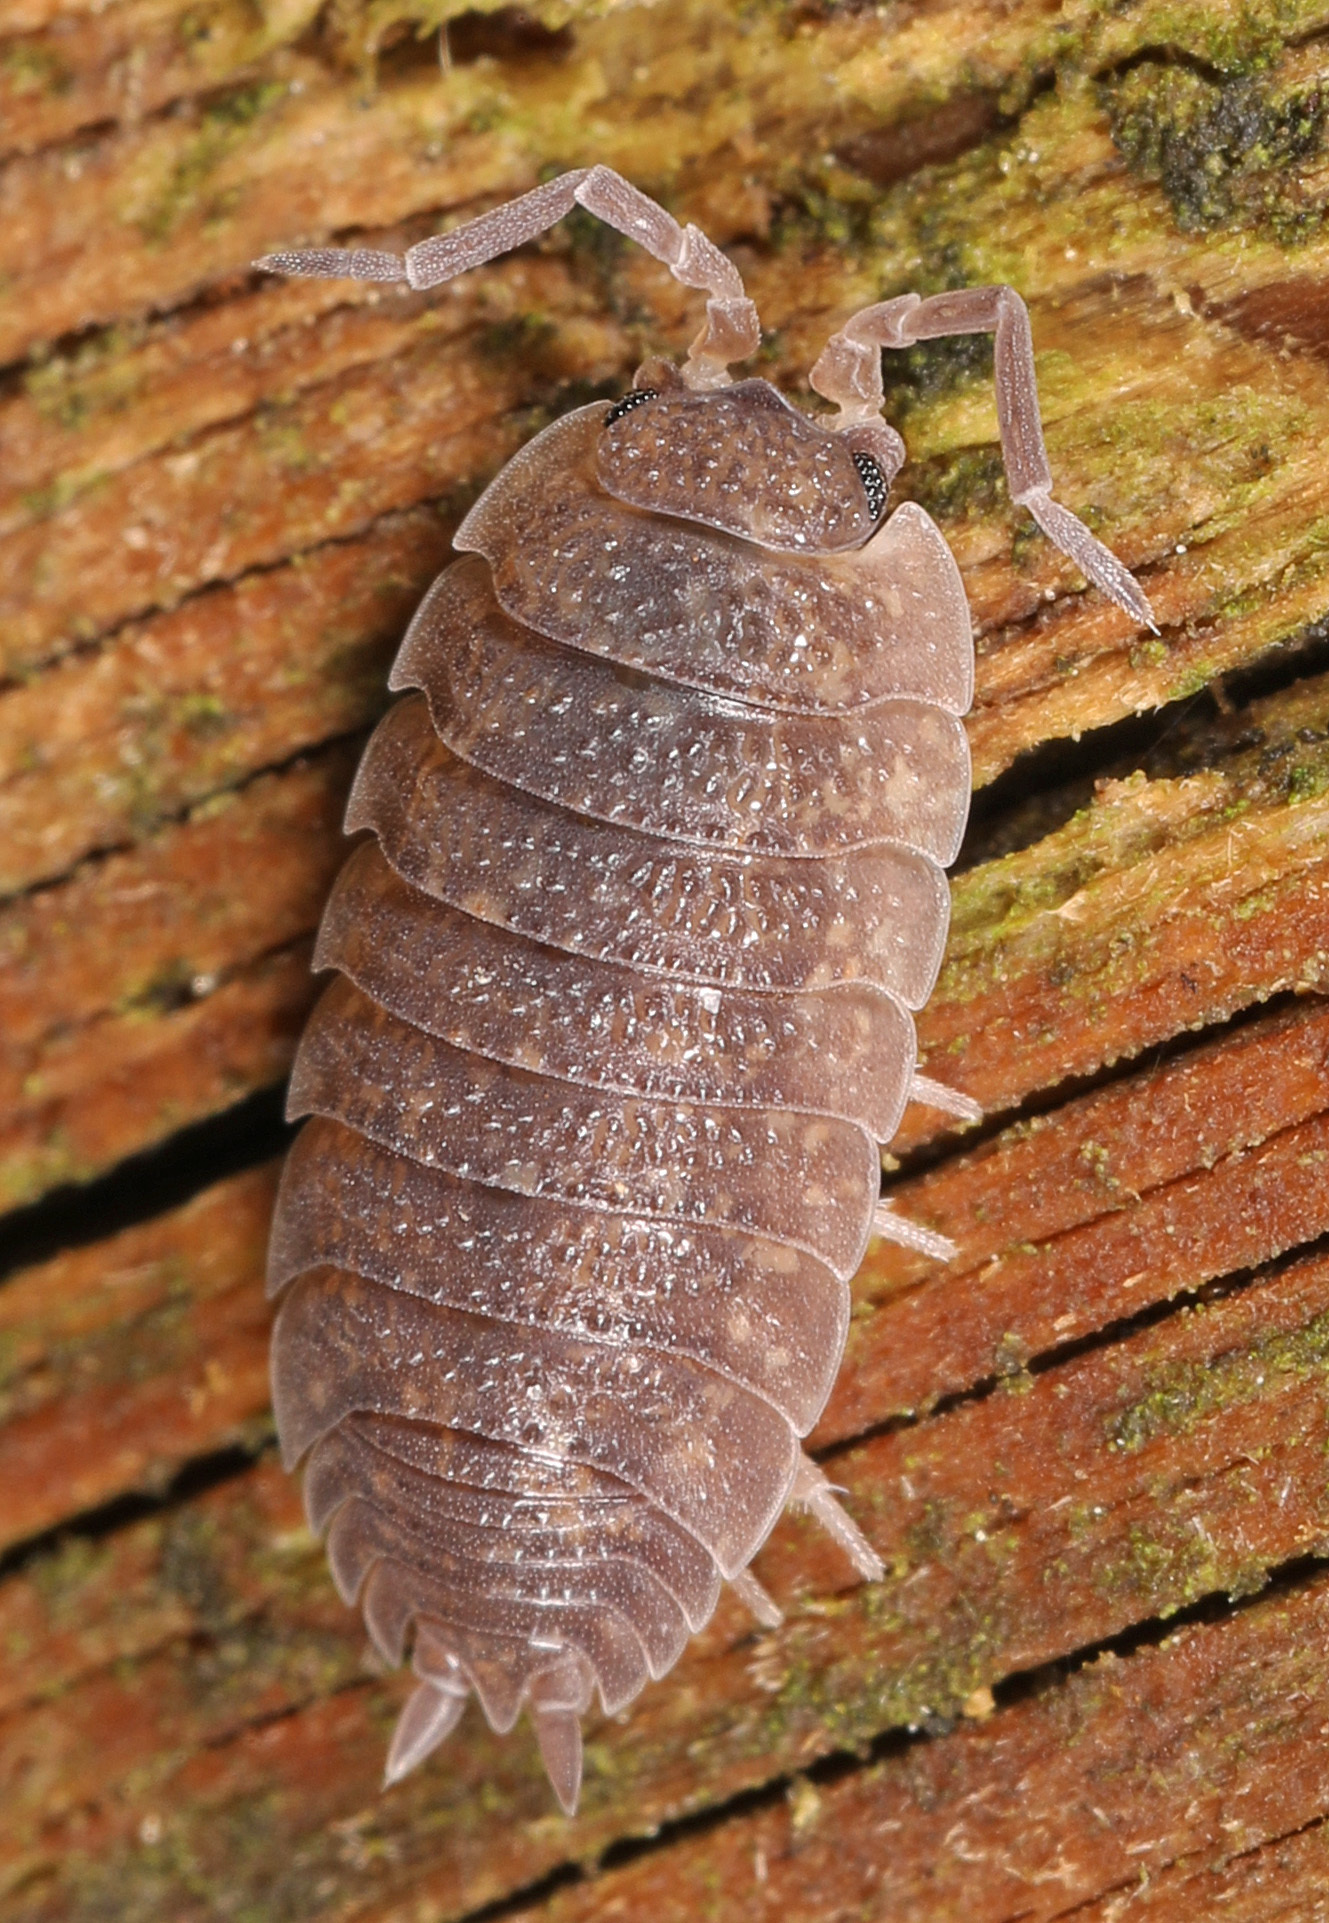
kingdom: Animalia
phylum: Arthropoda
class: Malacostraca
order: Isopoda
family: Porcellionidae
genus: Porcellio
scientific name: Porcellio scaber
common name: Common rough woodlouse
